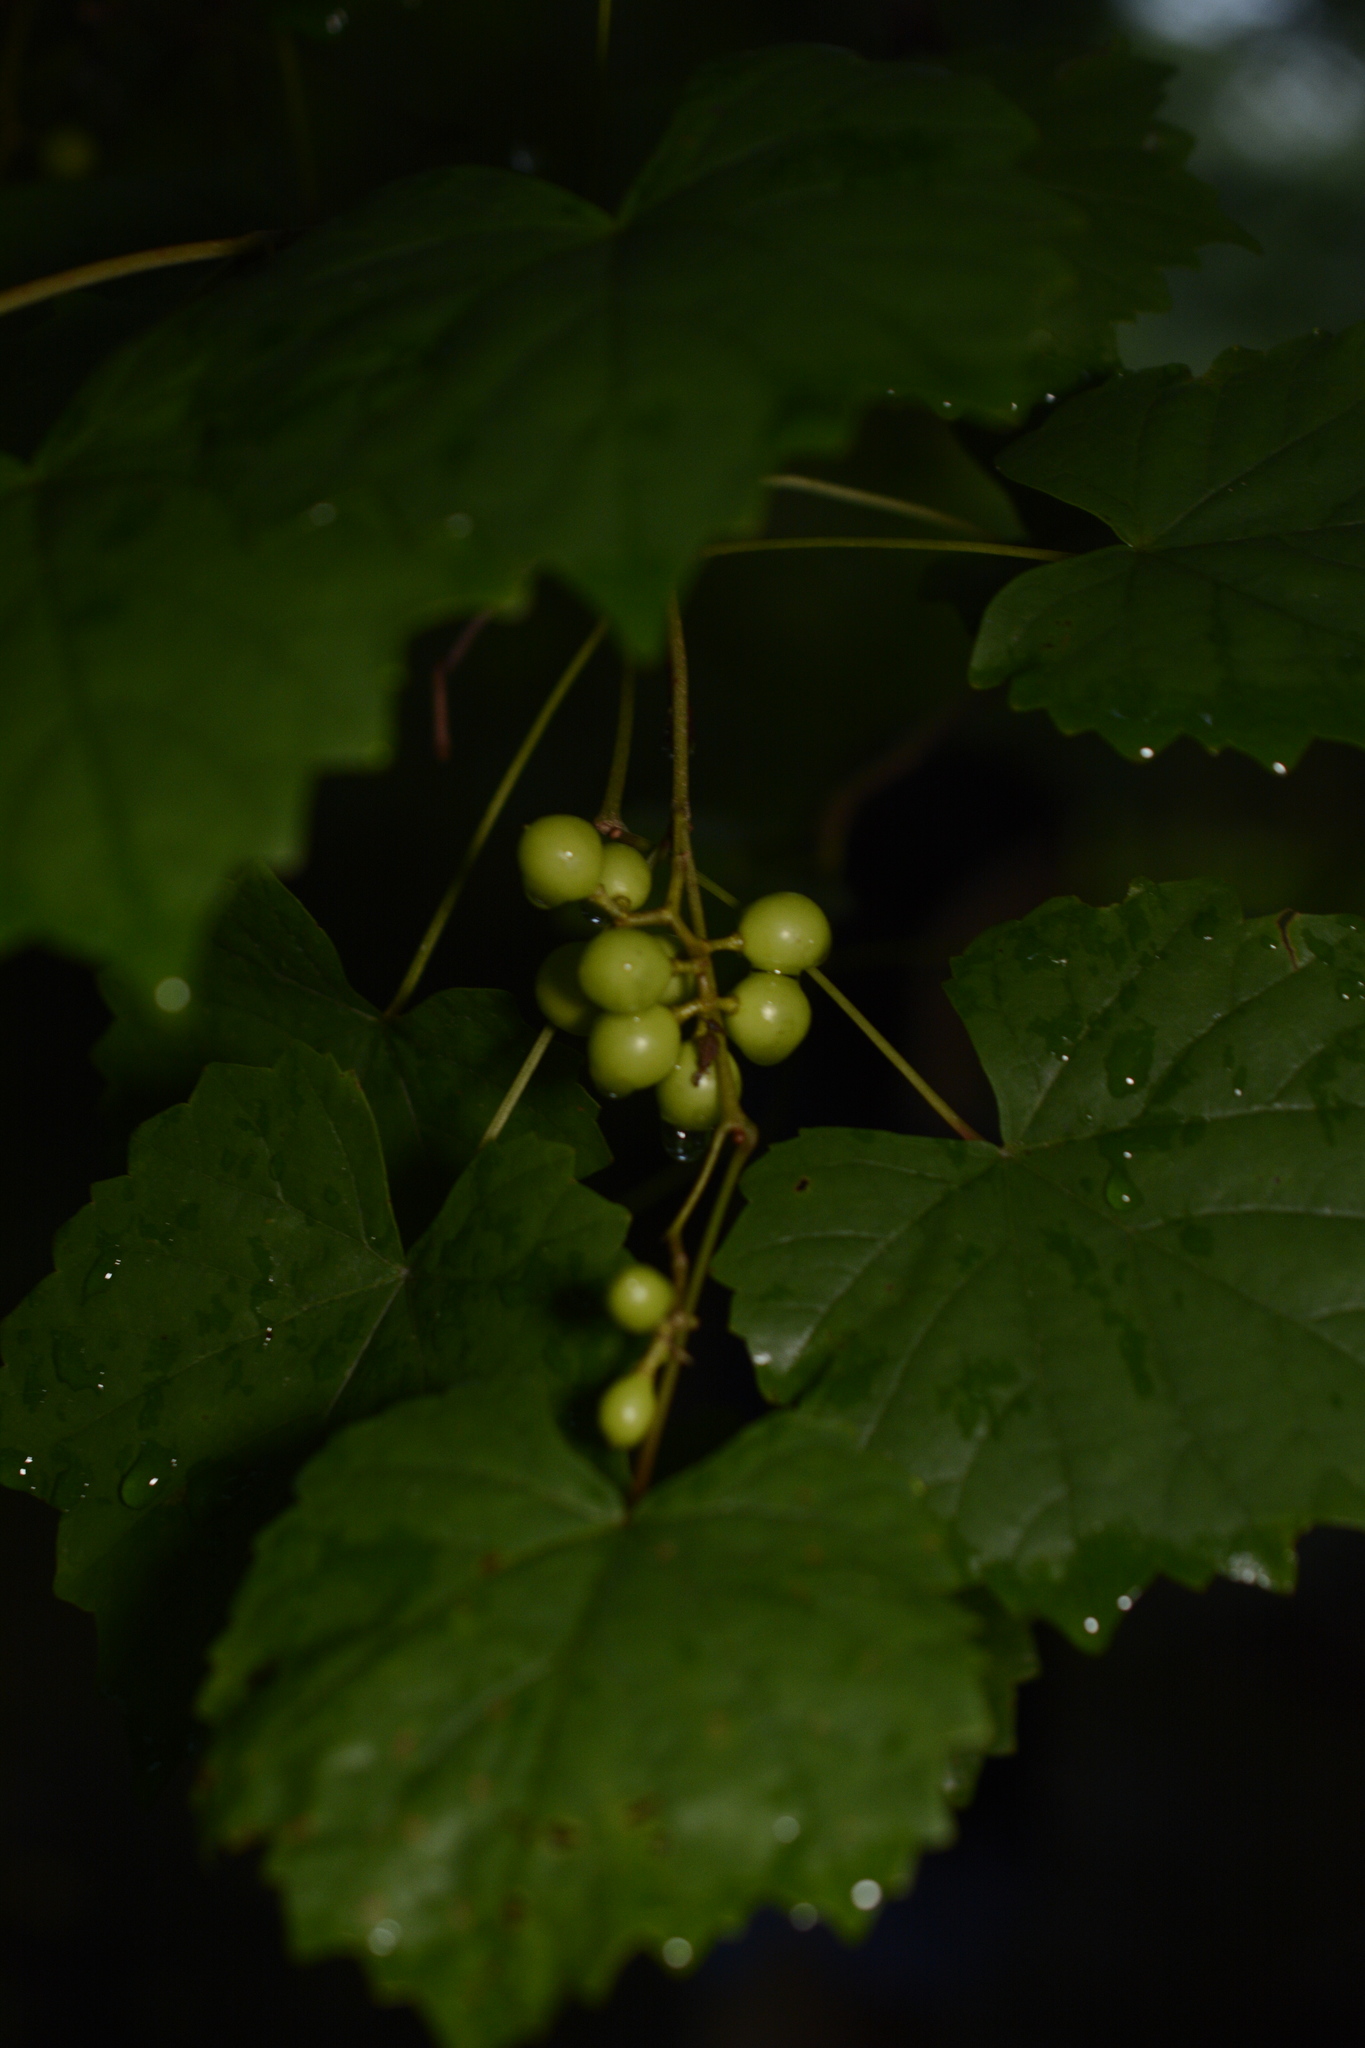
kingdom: Plantae
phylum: Tracheophyta
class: Magnoliopsida
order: Vitales
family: Vitaceae
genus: Vitis
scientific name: Vitis rotundifolia
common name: Muscadine grape
